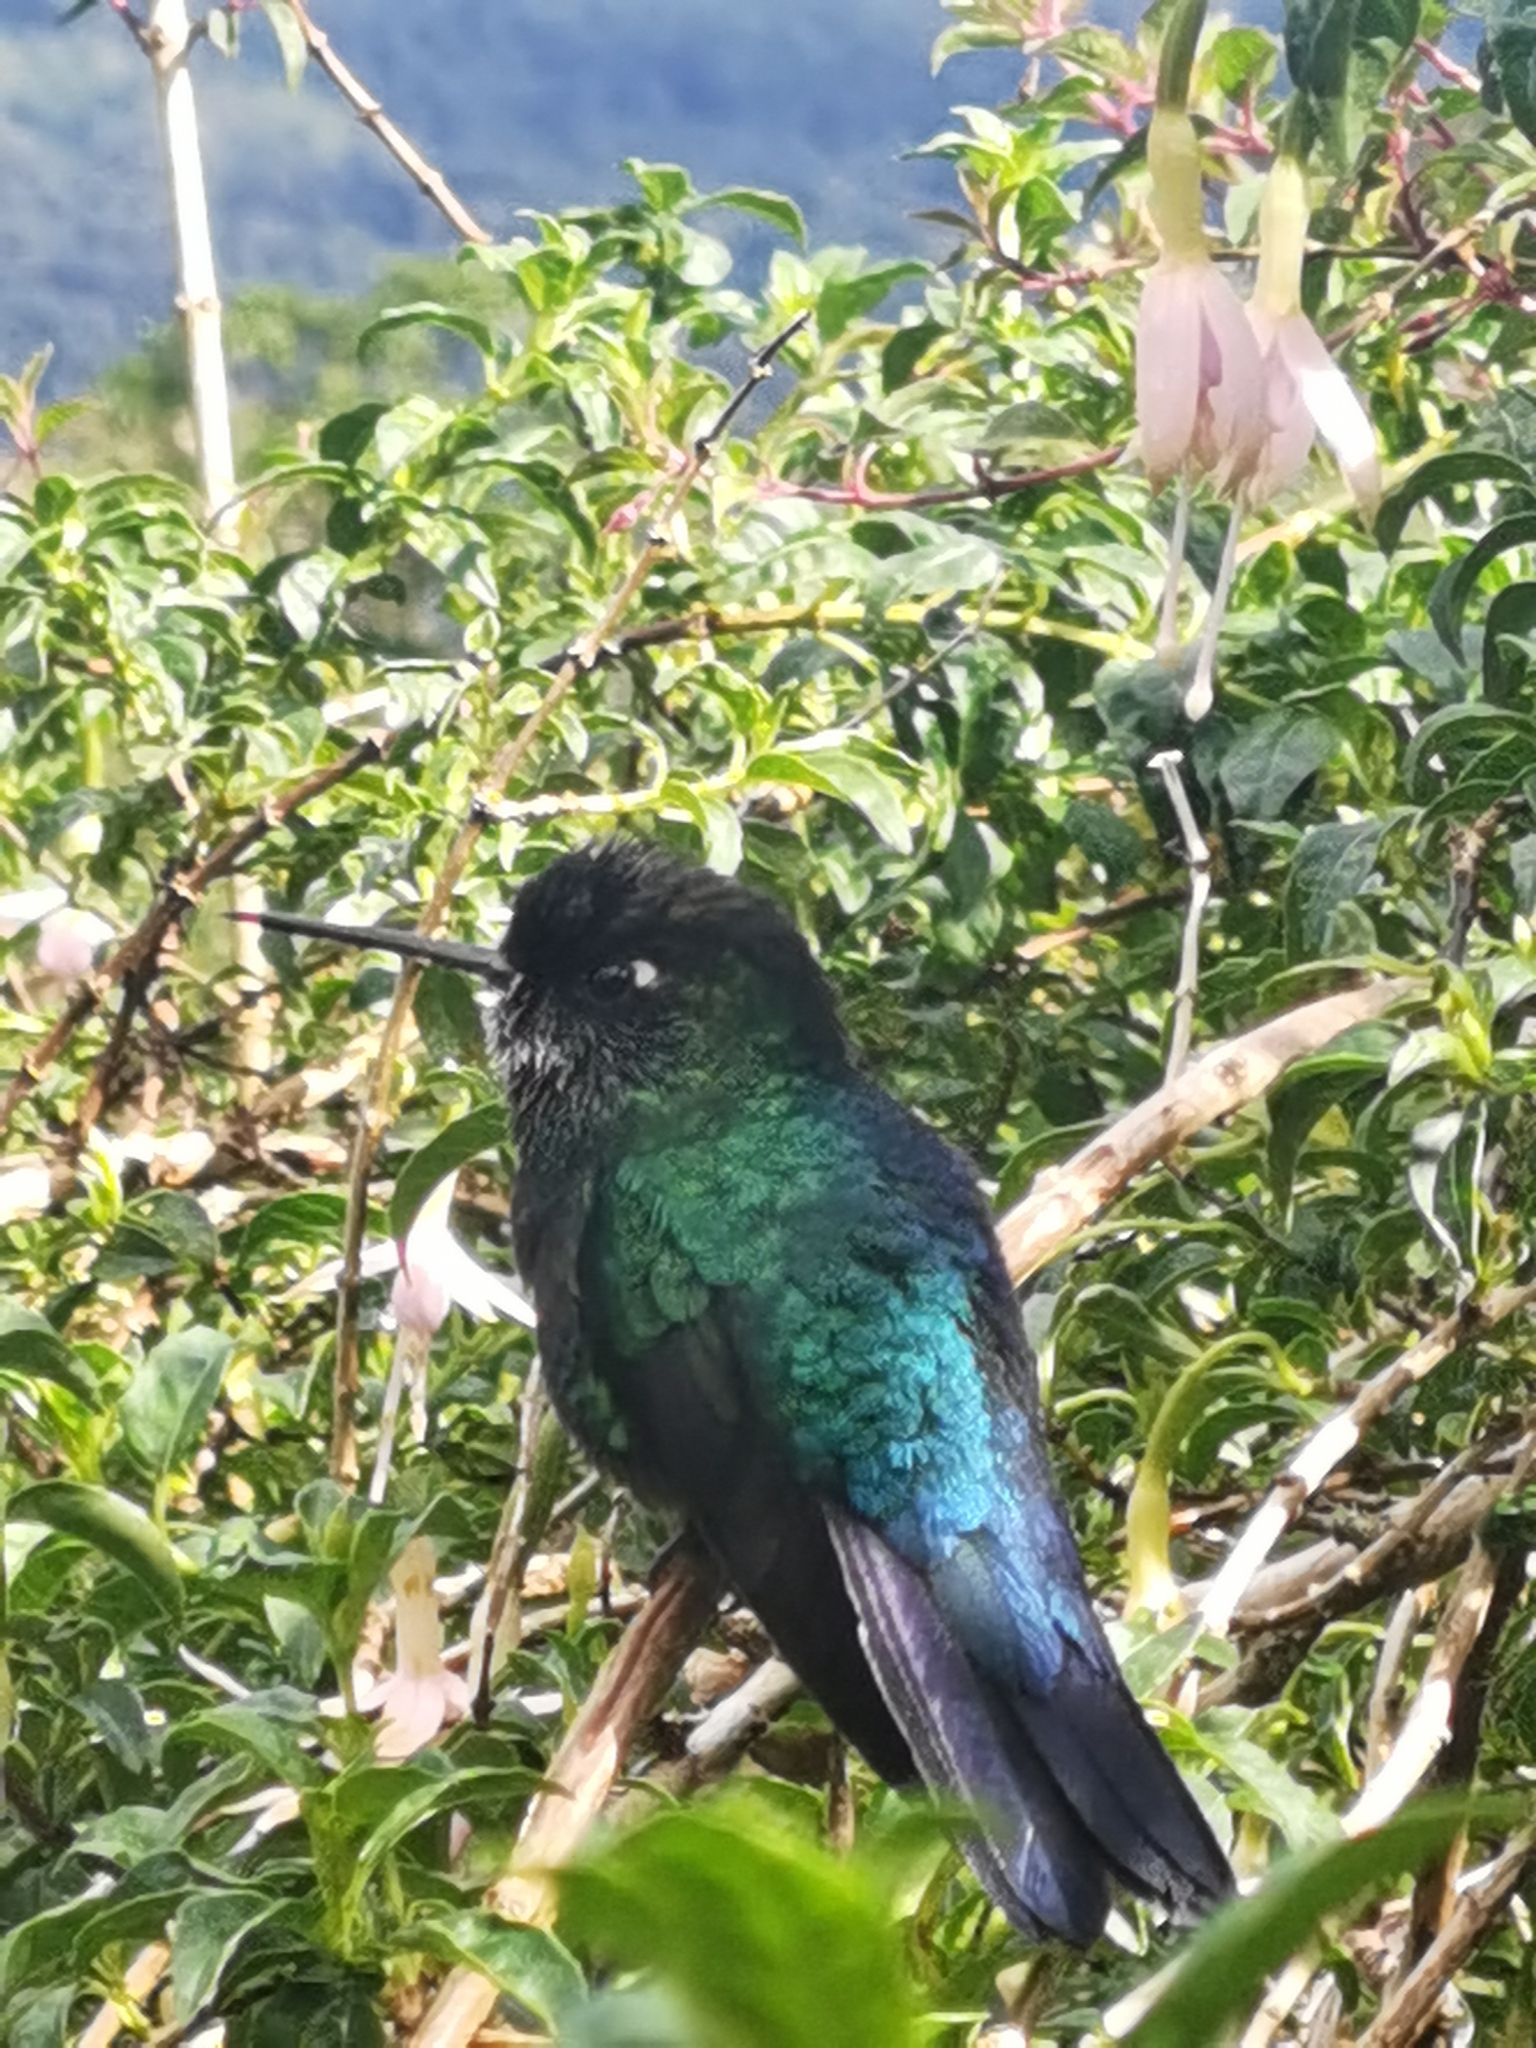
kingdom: Animalia
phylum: Chordata
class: Aves
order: Apodiformes
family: Trochilidae
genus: Panterpe
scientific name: Panterpe insignis
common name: Fiery-throated hummingbird
